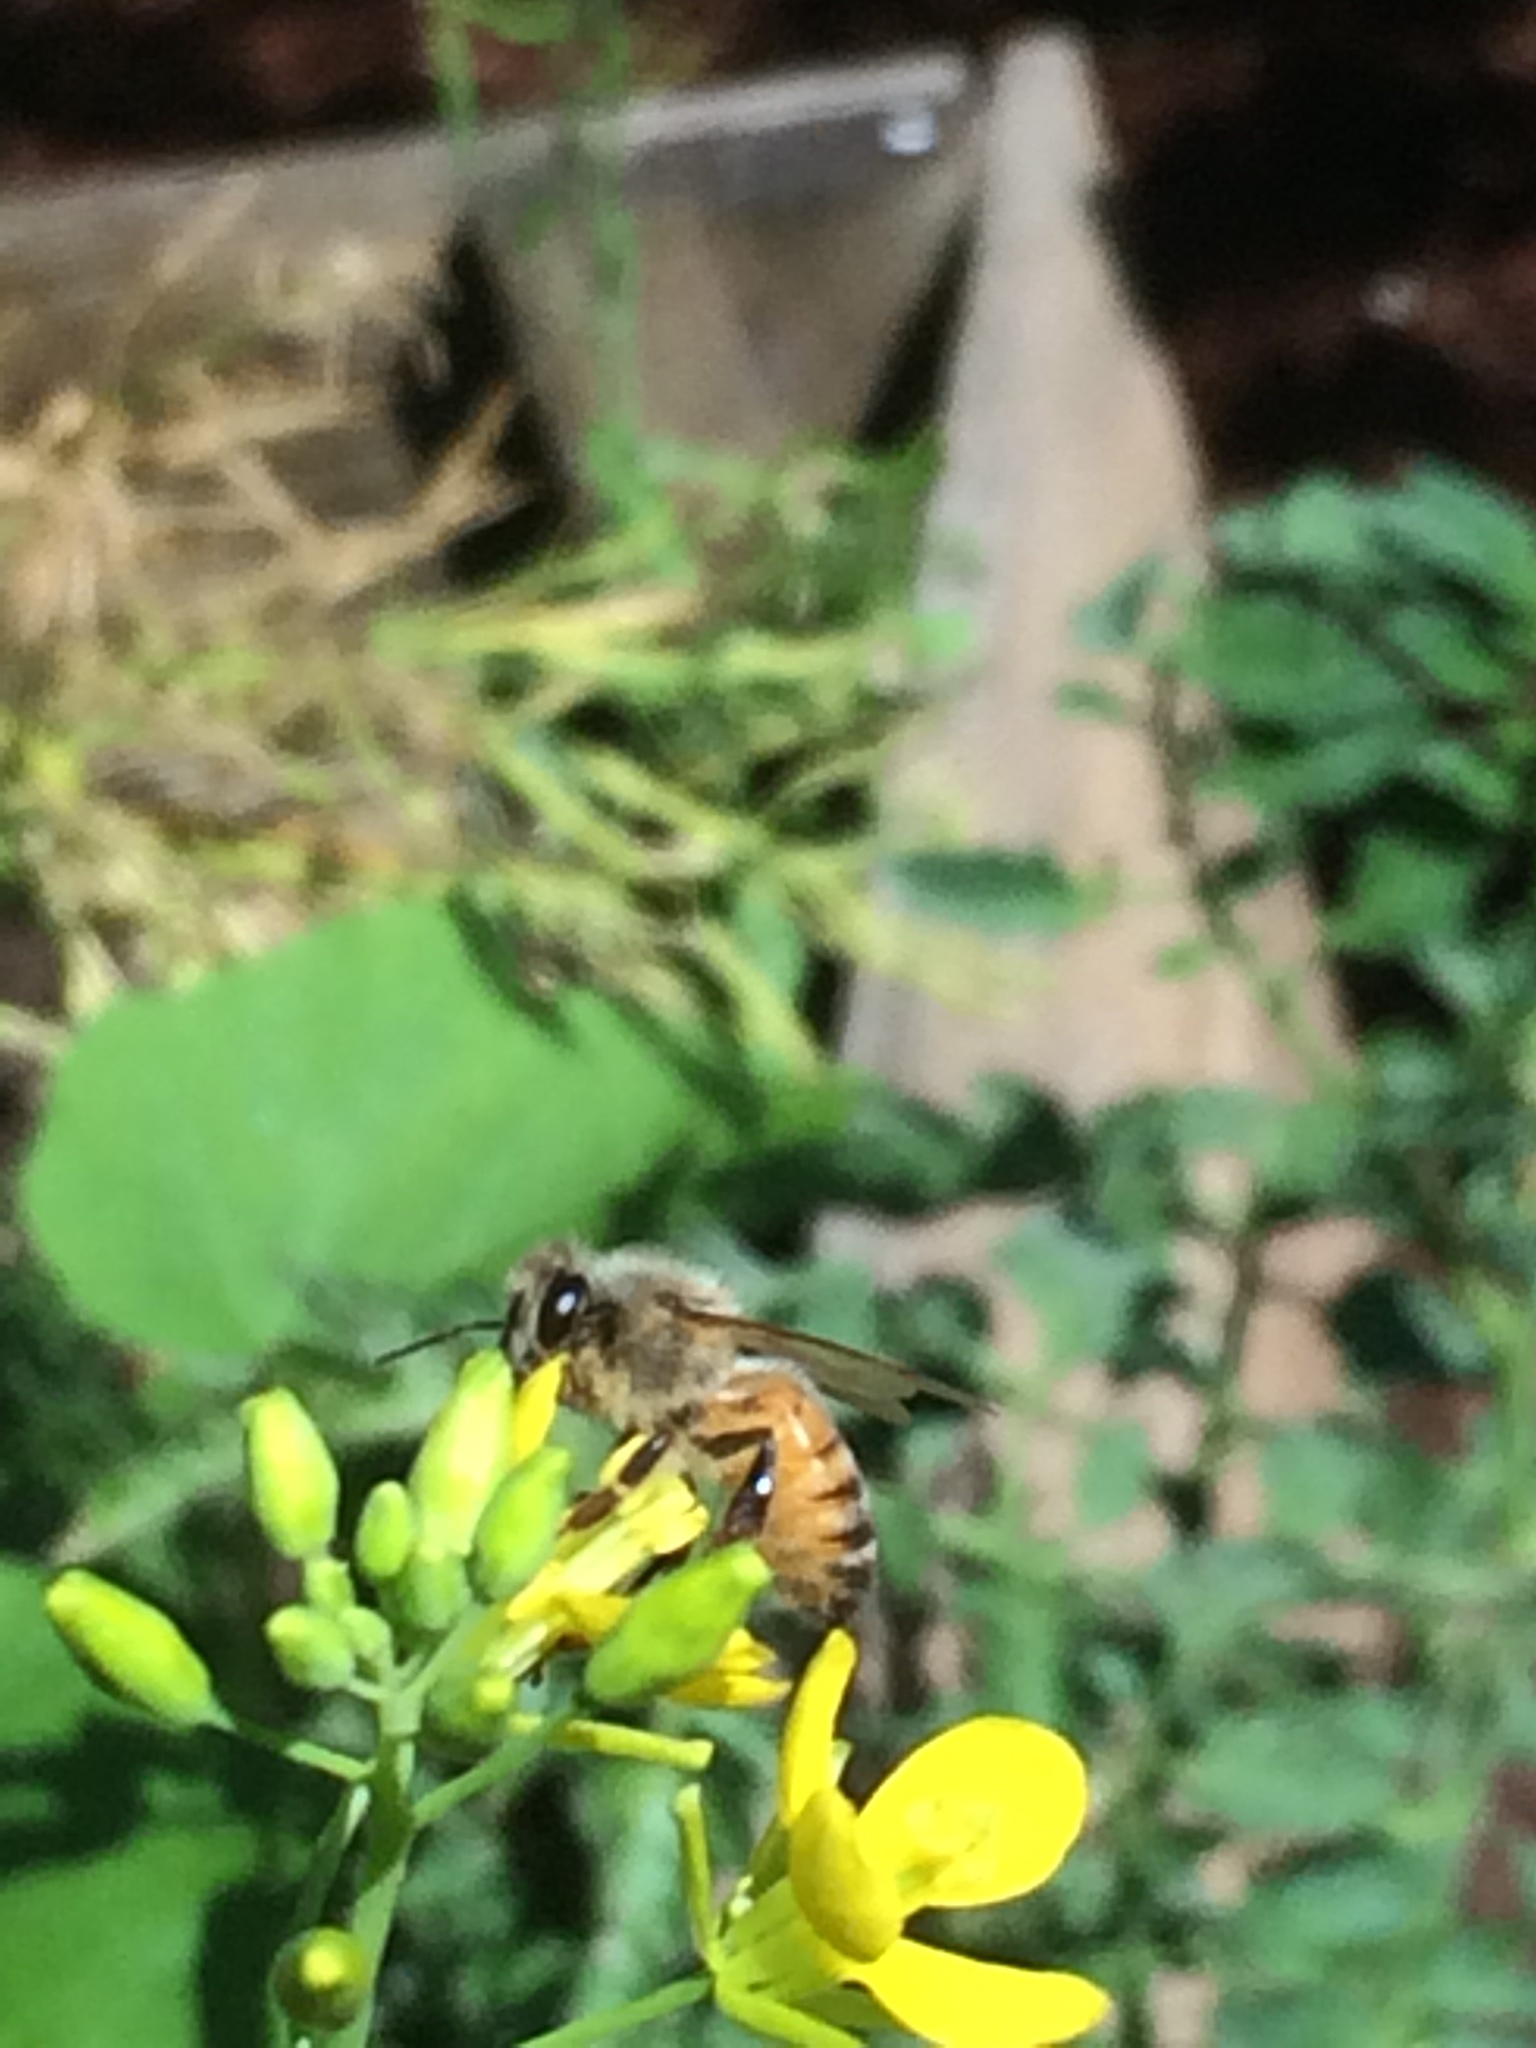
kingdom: Animalia
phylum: Arthropoda
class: Insecta
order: Hymenoptera
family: Apidae
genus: Apis
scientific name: Apis mellifera
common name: Honey bee
